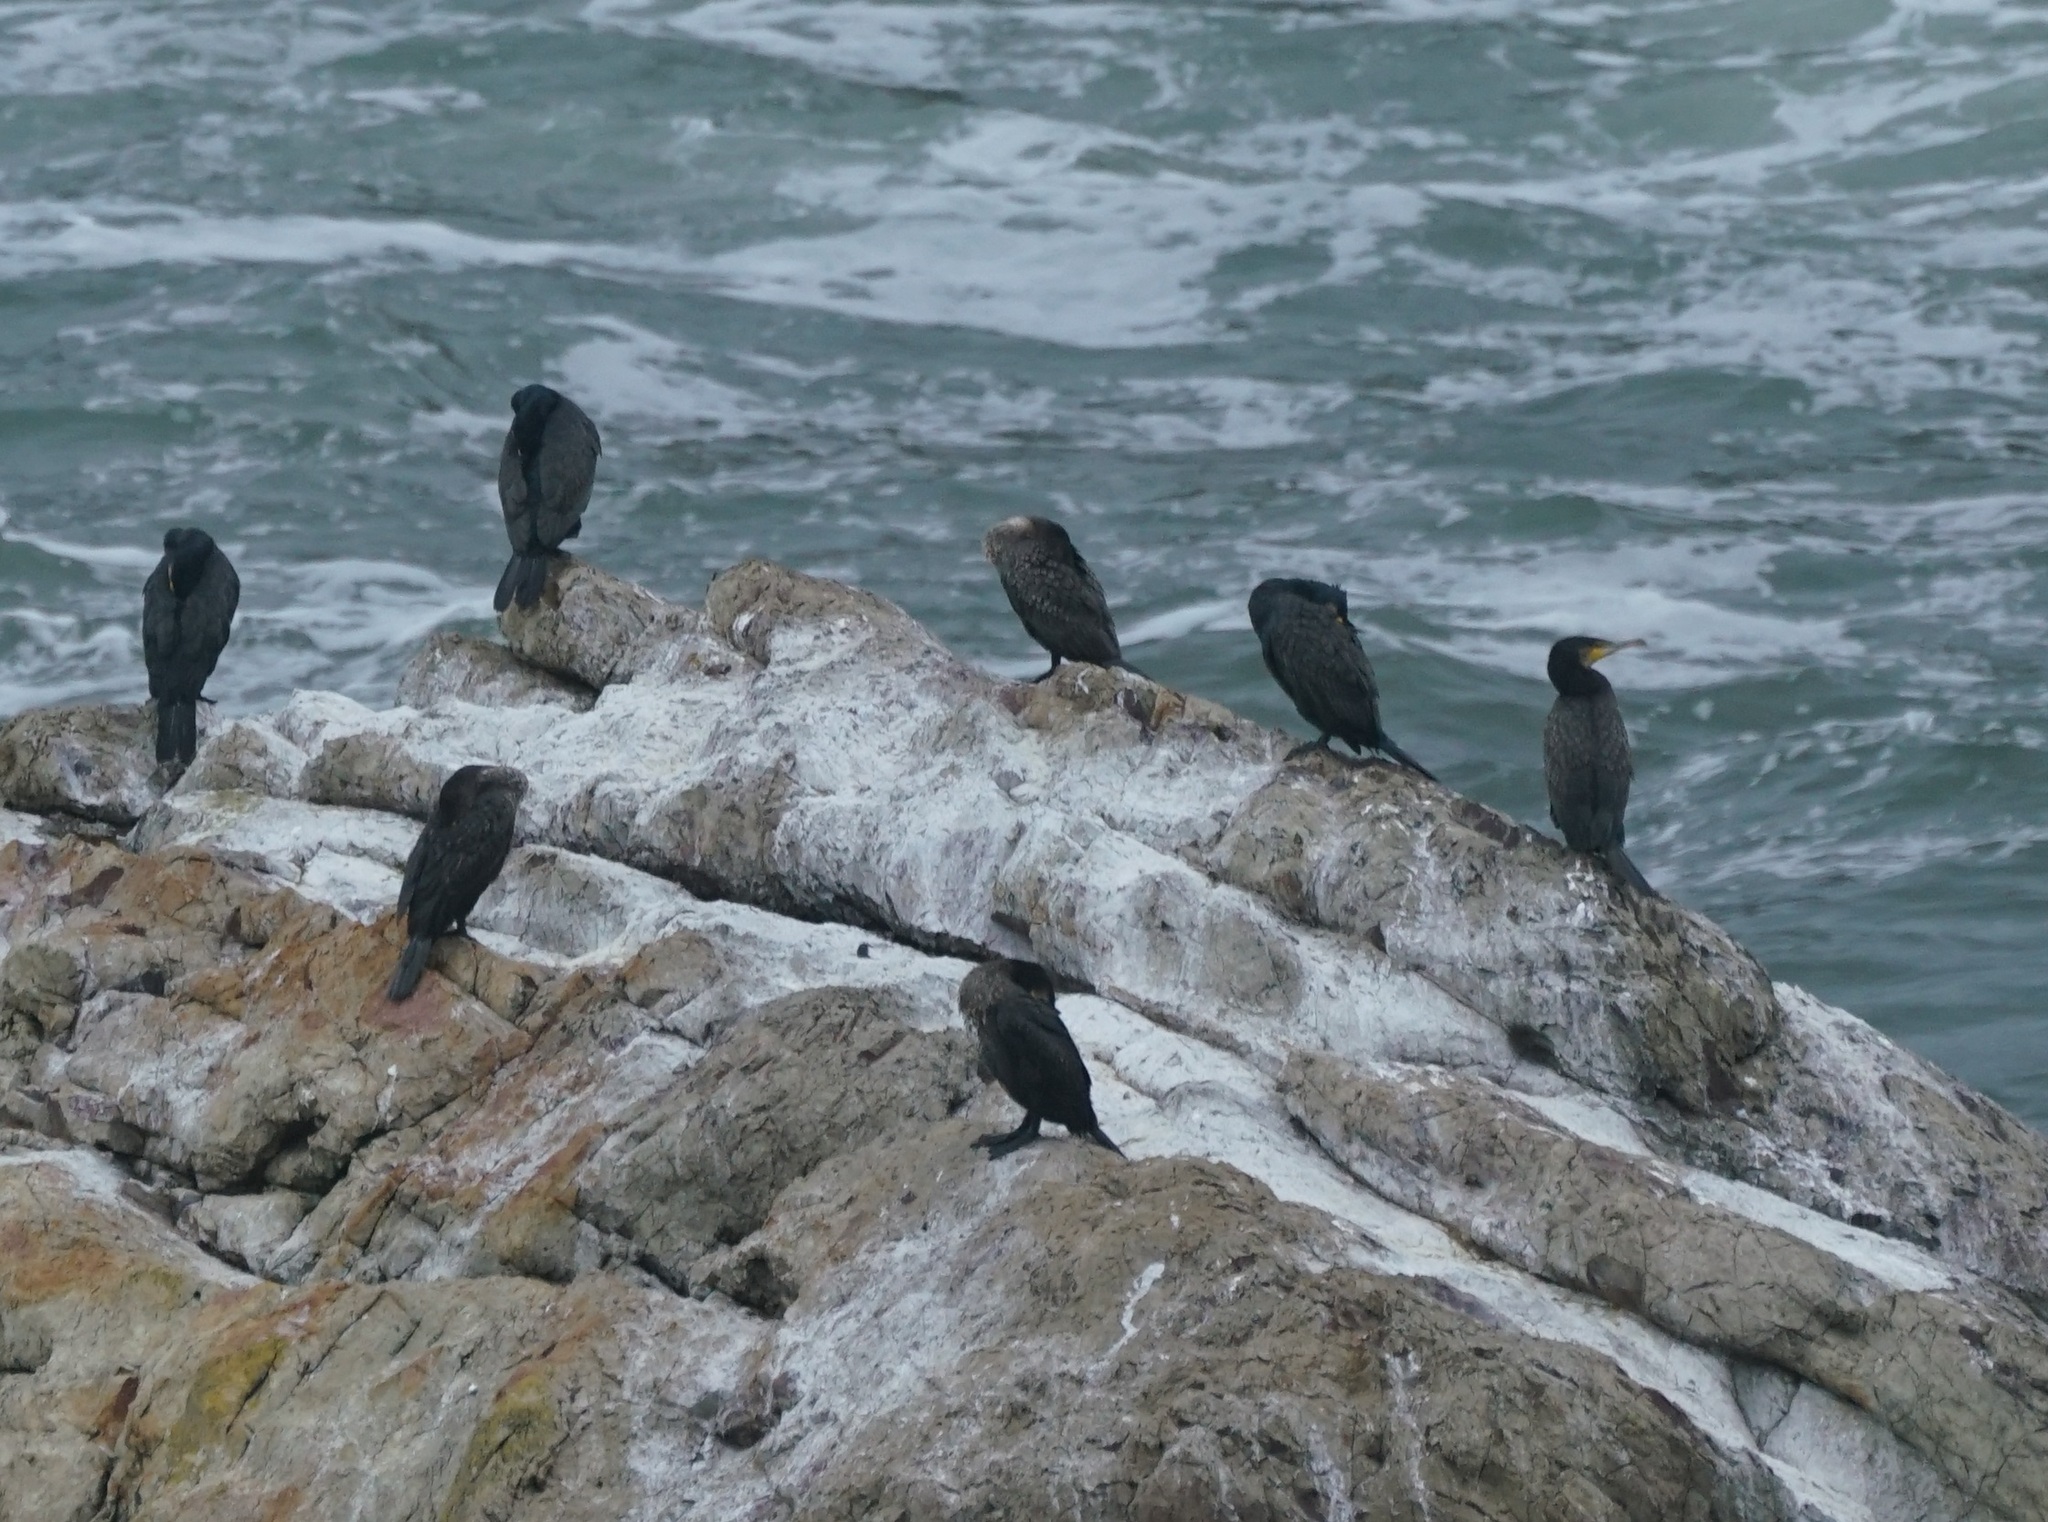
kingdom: Animalia
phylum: Chordata
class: Aves
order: Suliformes
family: Phalacrocoracidae
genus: Phalacrocorax
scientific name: Phalacrocorax carbo
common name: Great cormorant
